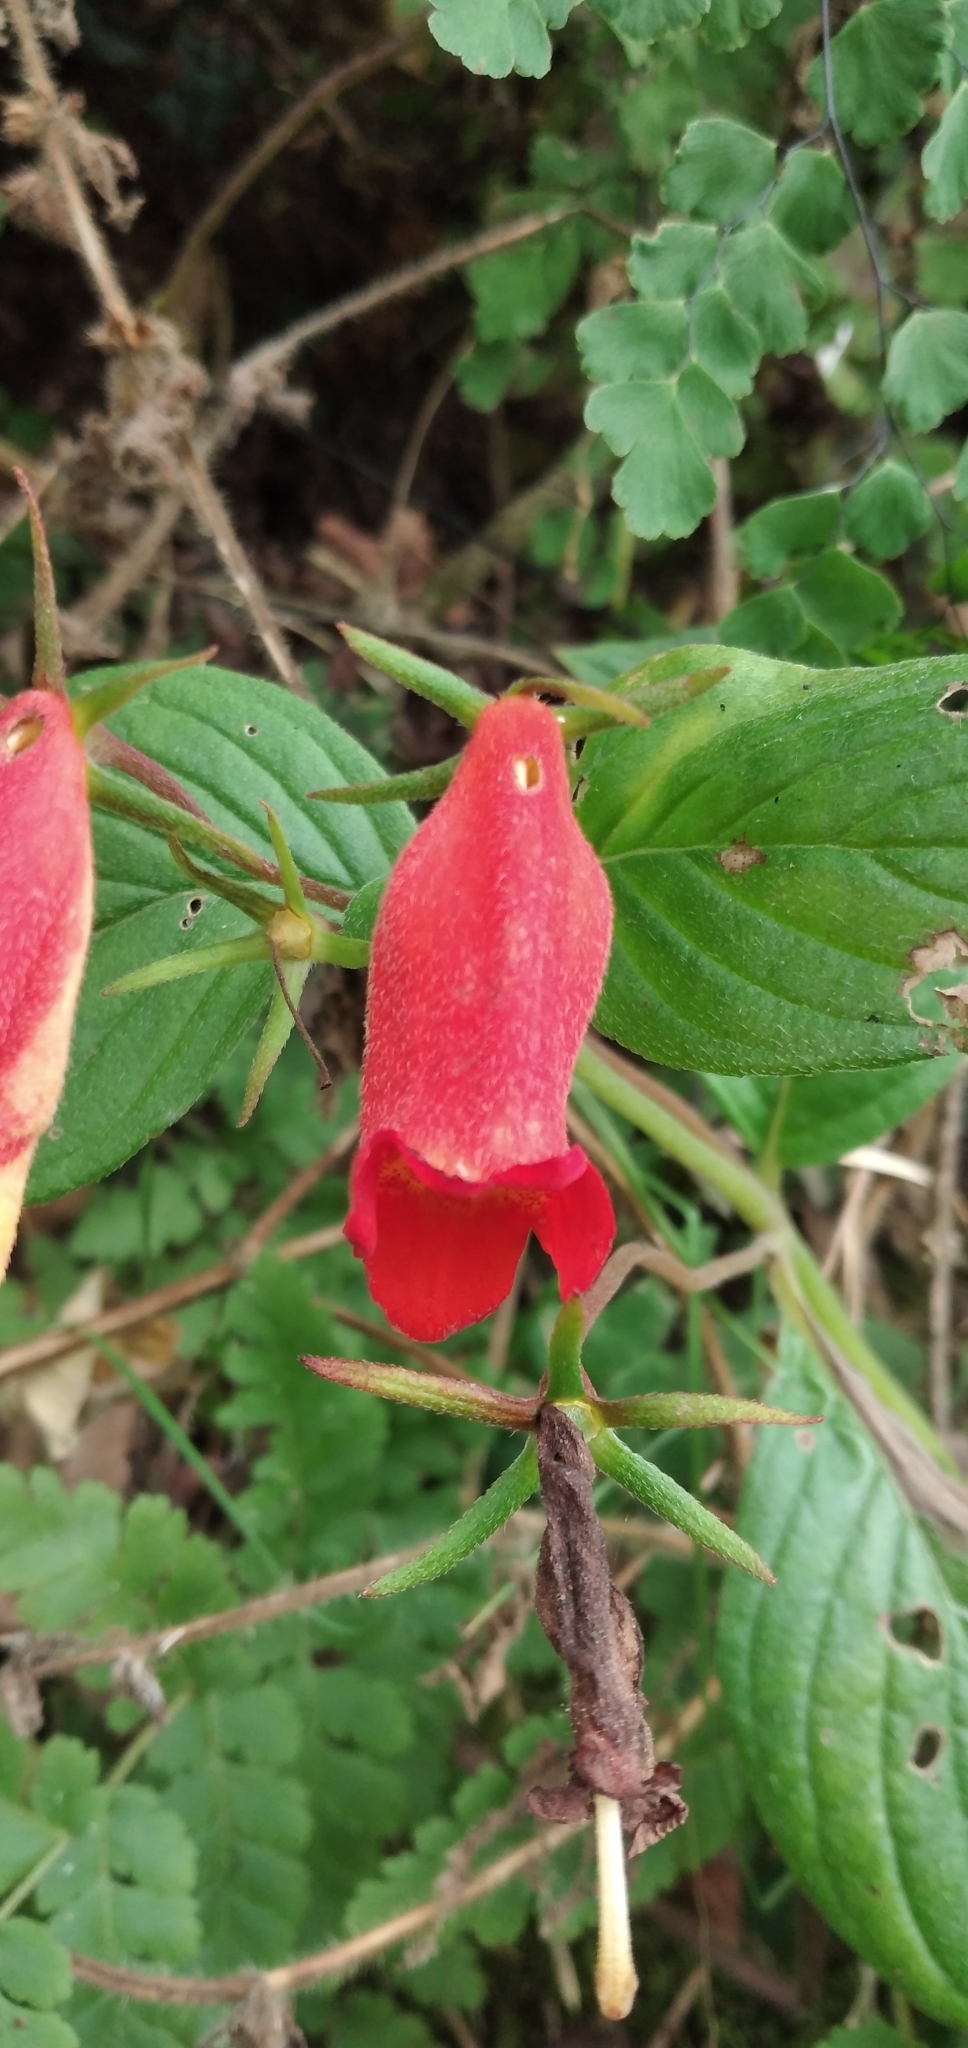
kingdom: Plantae
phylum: Tracheophyta
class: Magnoliopsida
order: Lamiales
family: Gesneriaceae
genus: Seemannia
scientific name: Seemannia nematanthodes
